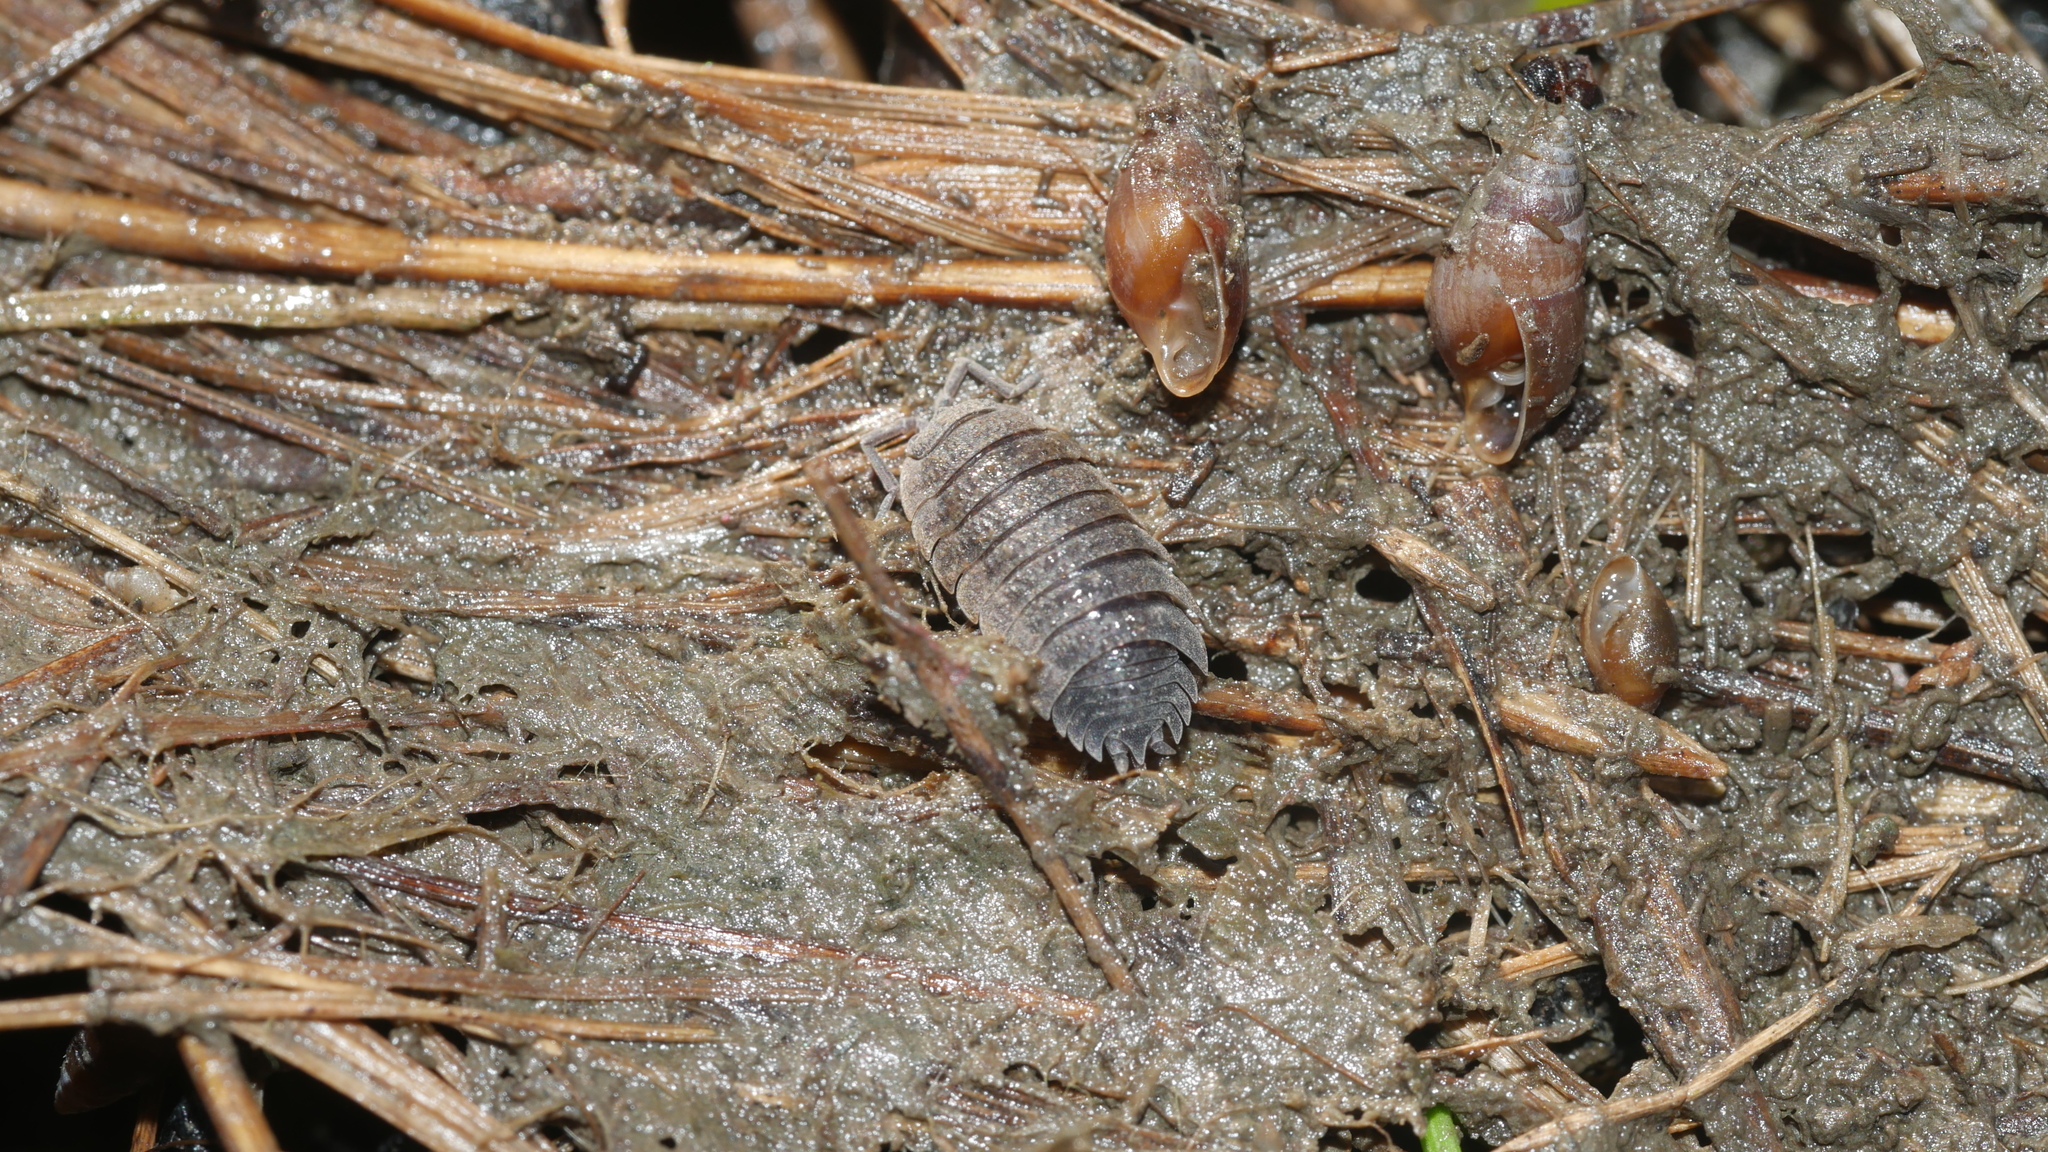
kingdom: Animalia
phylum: Arthropoda
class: Malacostraca
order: Isopoda
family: Porcellionidae
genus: Porcellio
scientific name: Porcellio scaber
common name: Common rough woodlouse
